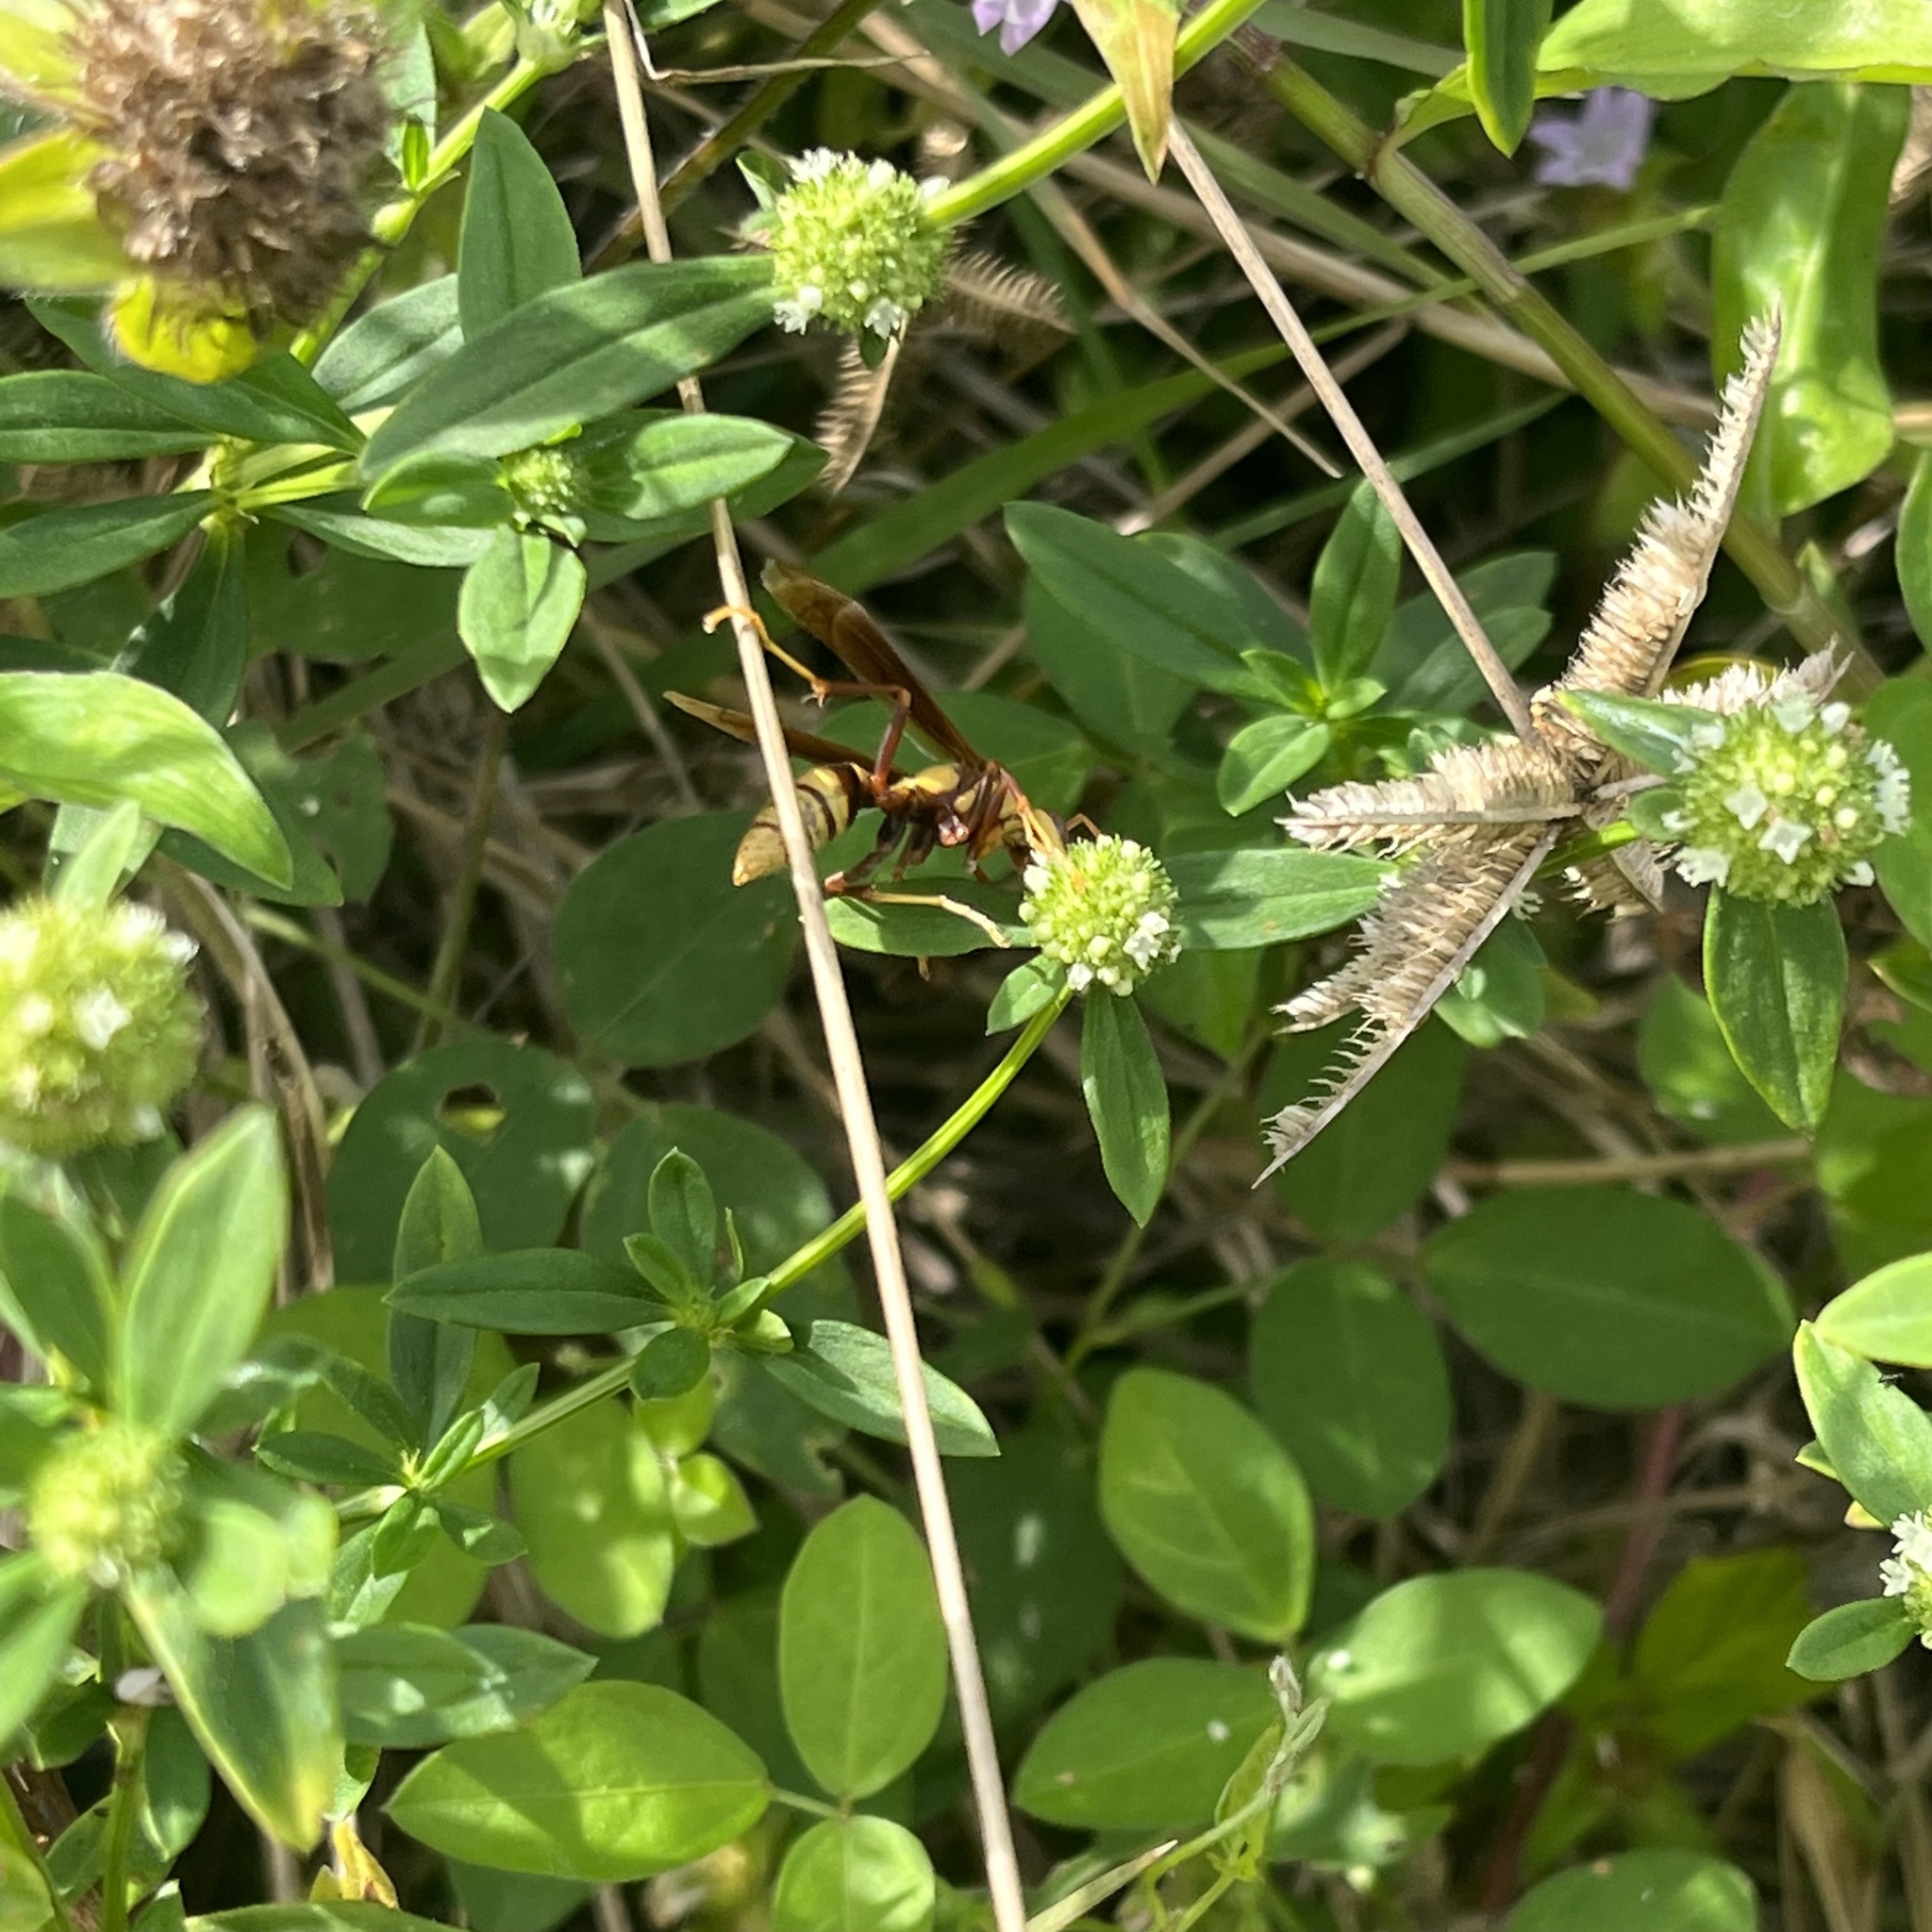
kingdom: Animalia
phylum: Arthropoda
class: Insecta
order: Hymenoptera
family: Eumenidae
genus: Polistes
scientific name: Polistes major
